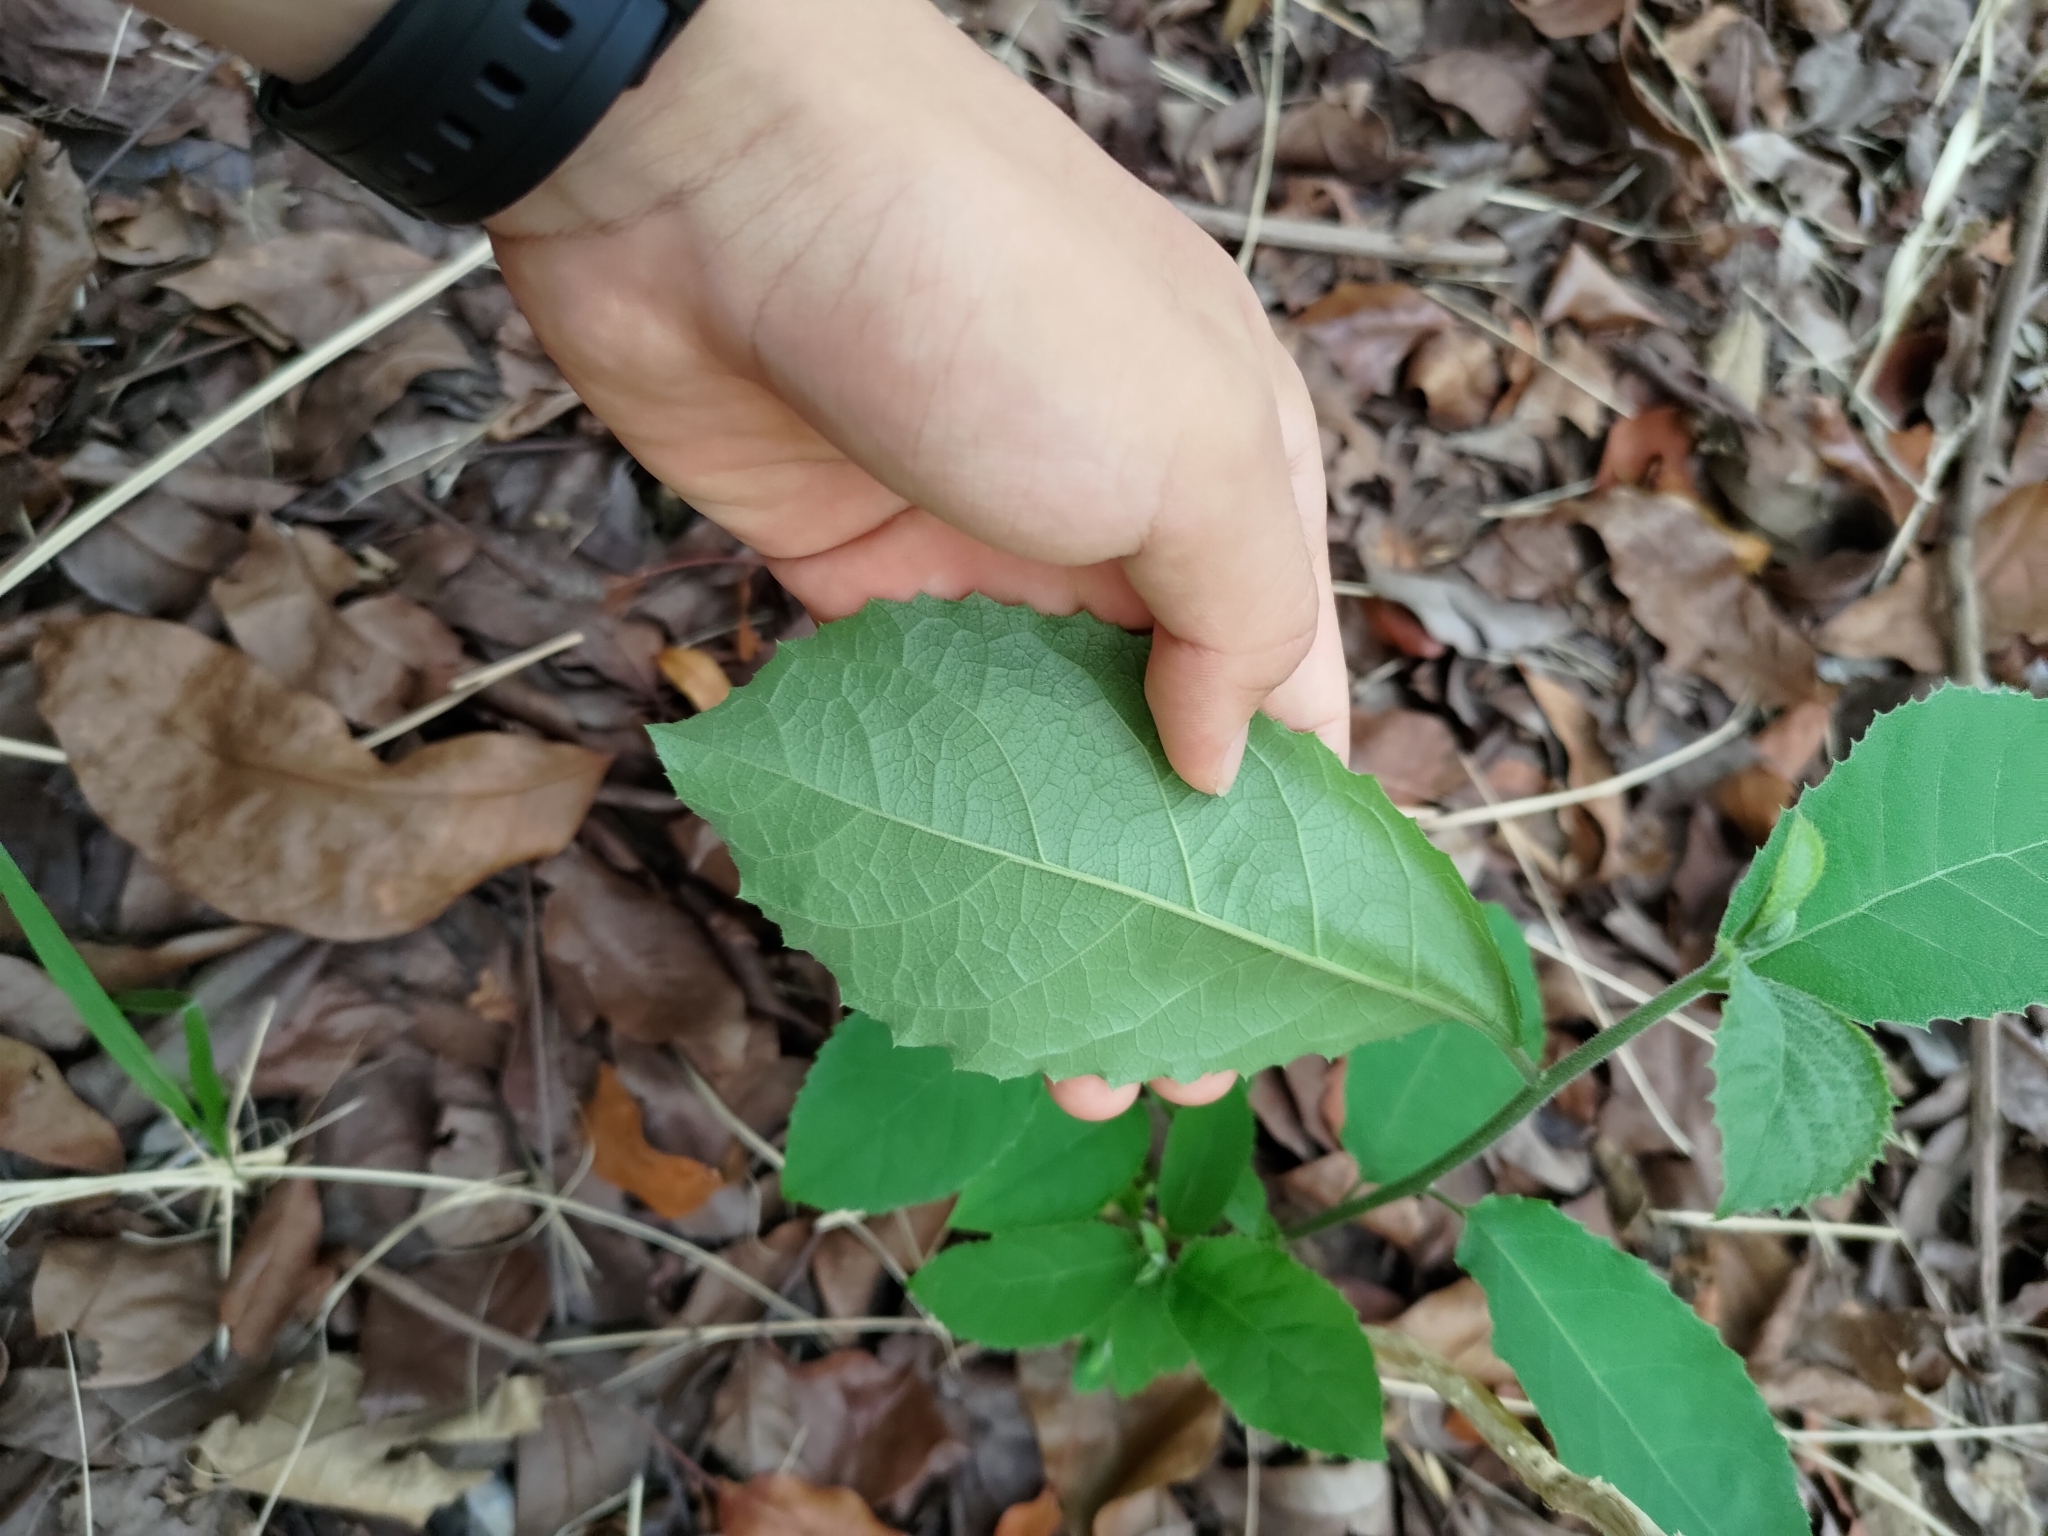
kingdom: Plantae
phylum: Tracheophyta
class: Magnoliopsida
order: Boraginales
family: Ehretiaceae
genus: Ehretia
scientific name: Ehretia acuminata
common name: Kodo wood
